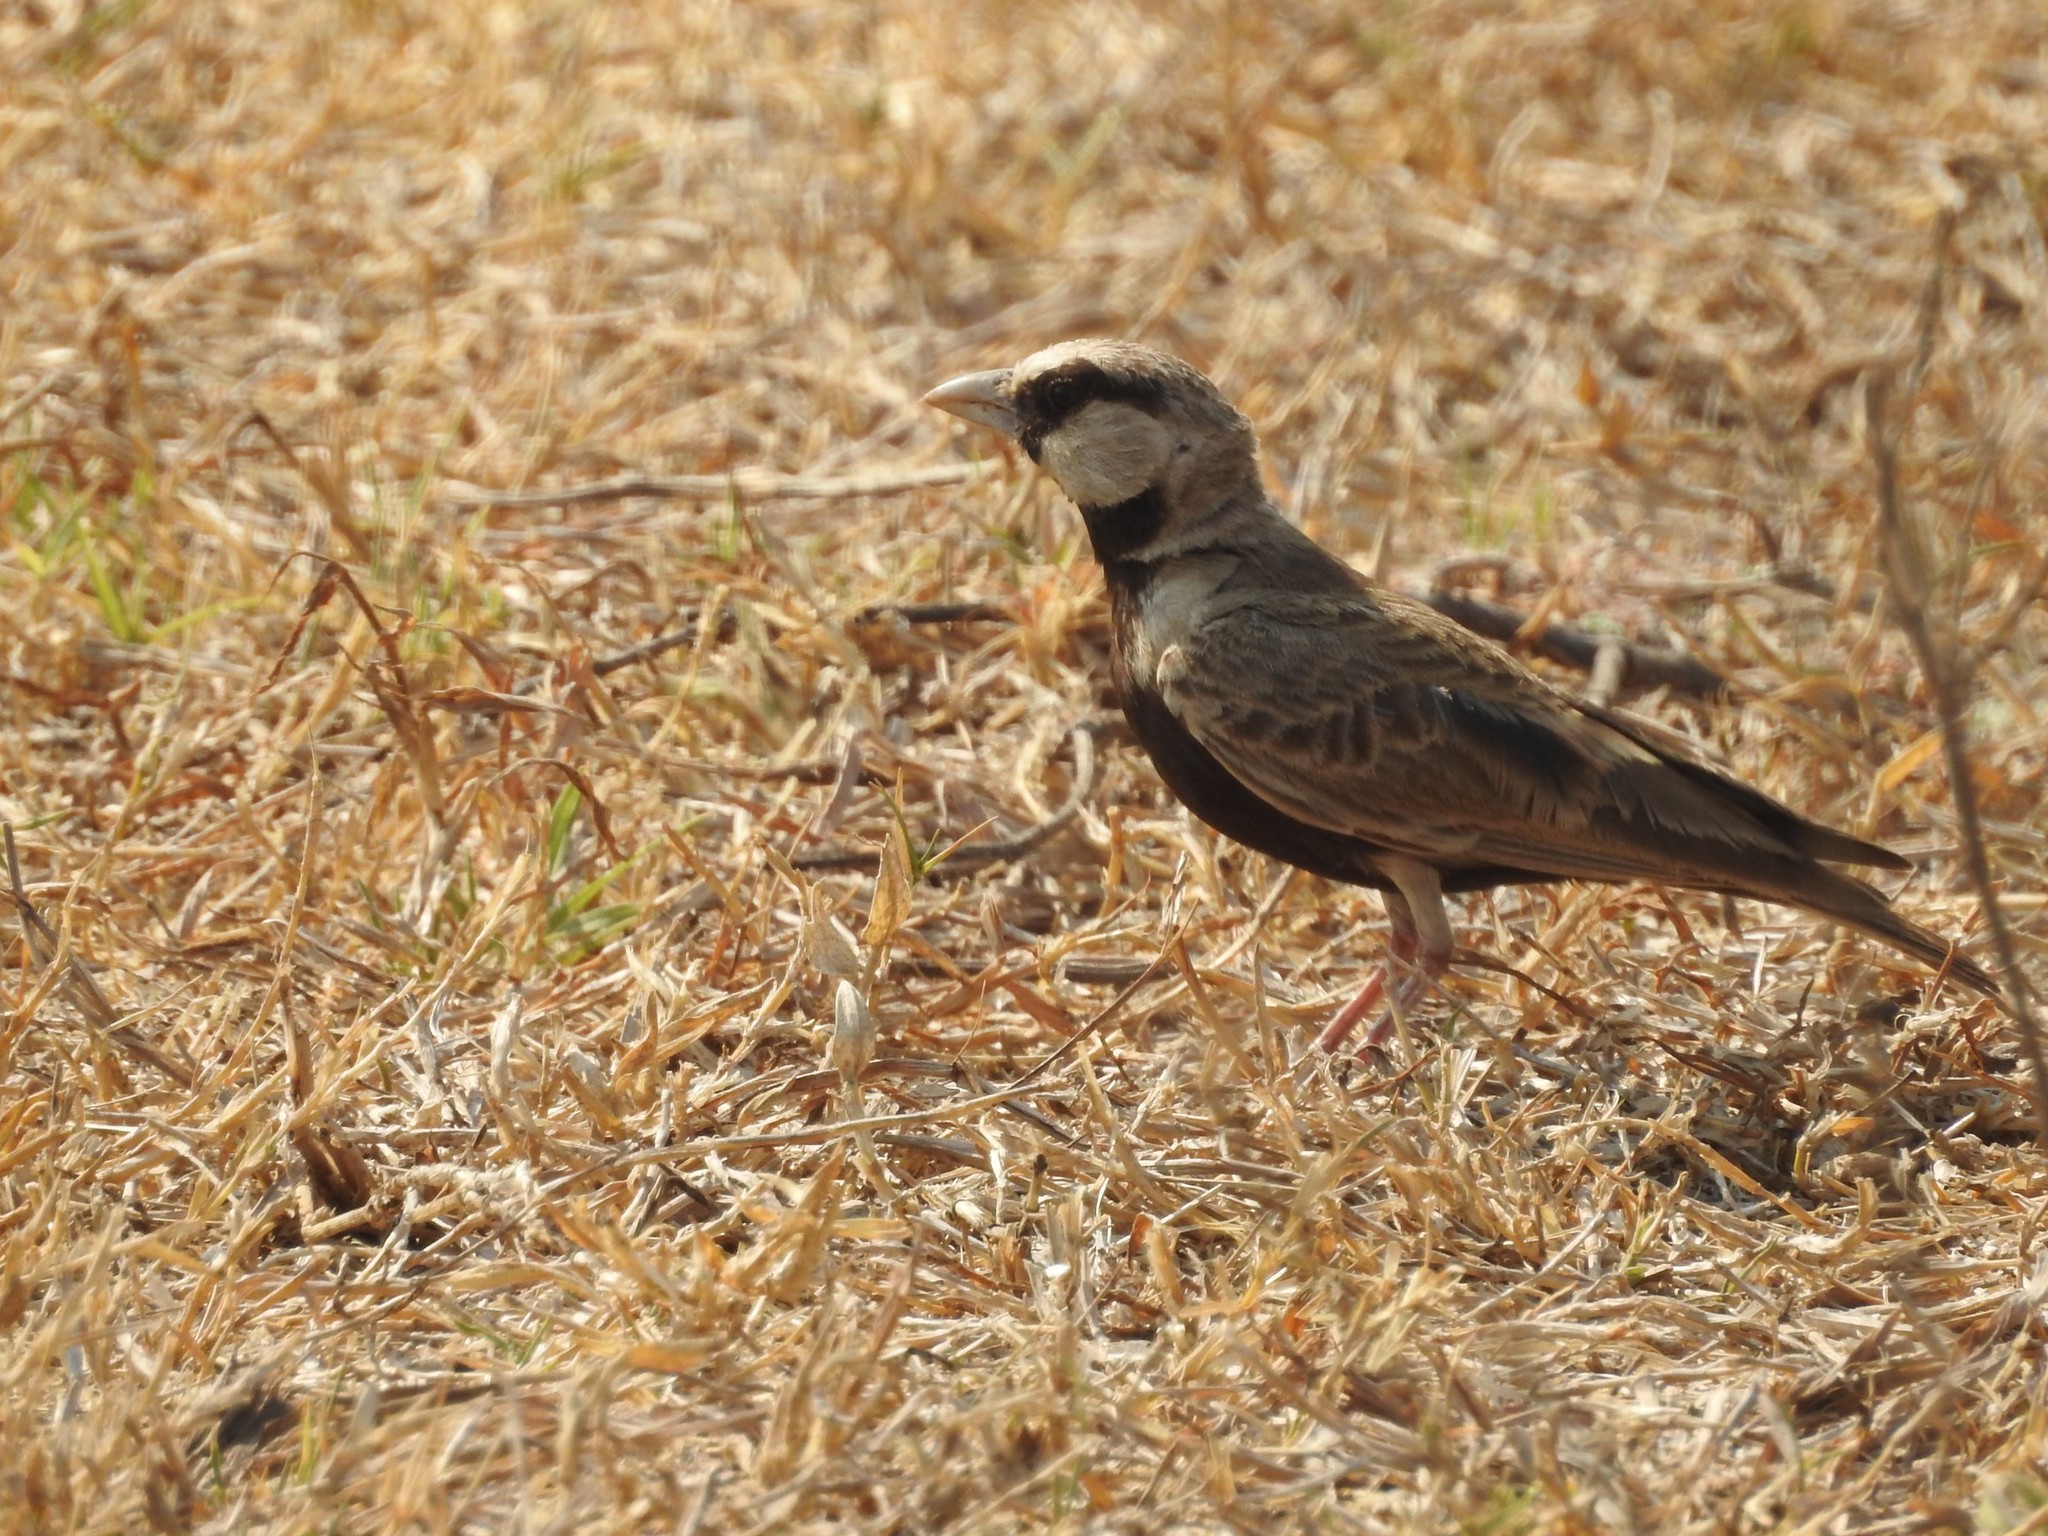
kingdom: Animalia
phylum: Chordata
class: Aves
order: Passeriformes
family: Alaudidae
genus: Eremopterix
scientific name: Eremopterix griseus
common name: Ashy-crowned sparrow-lark
